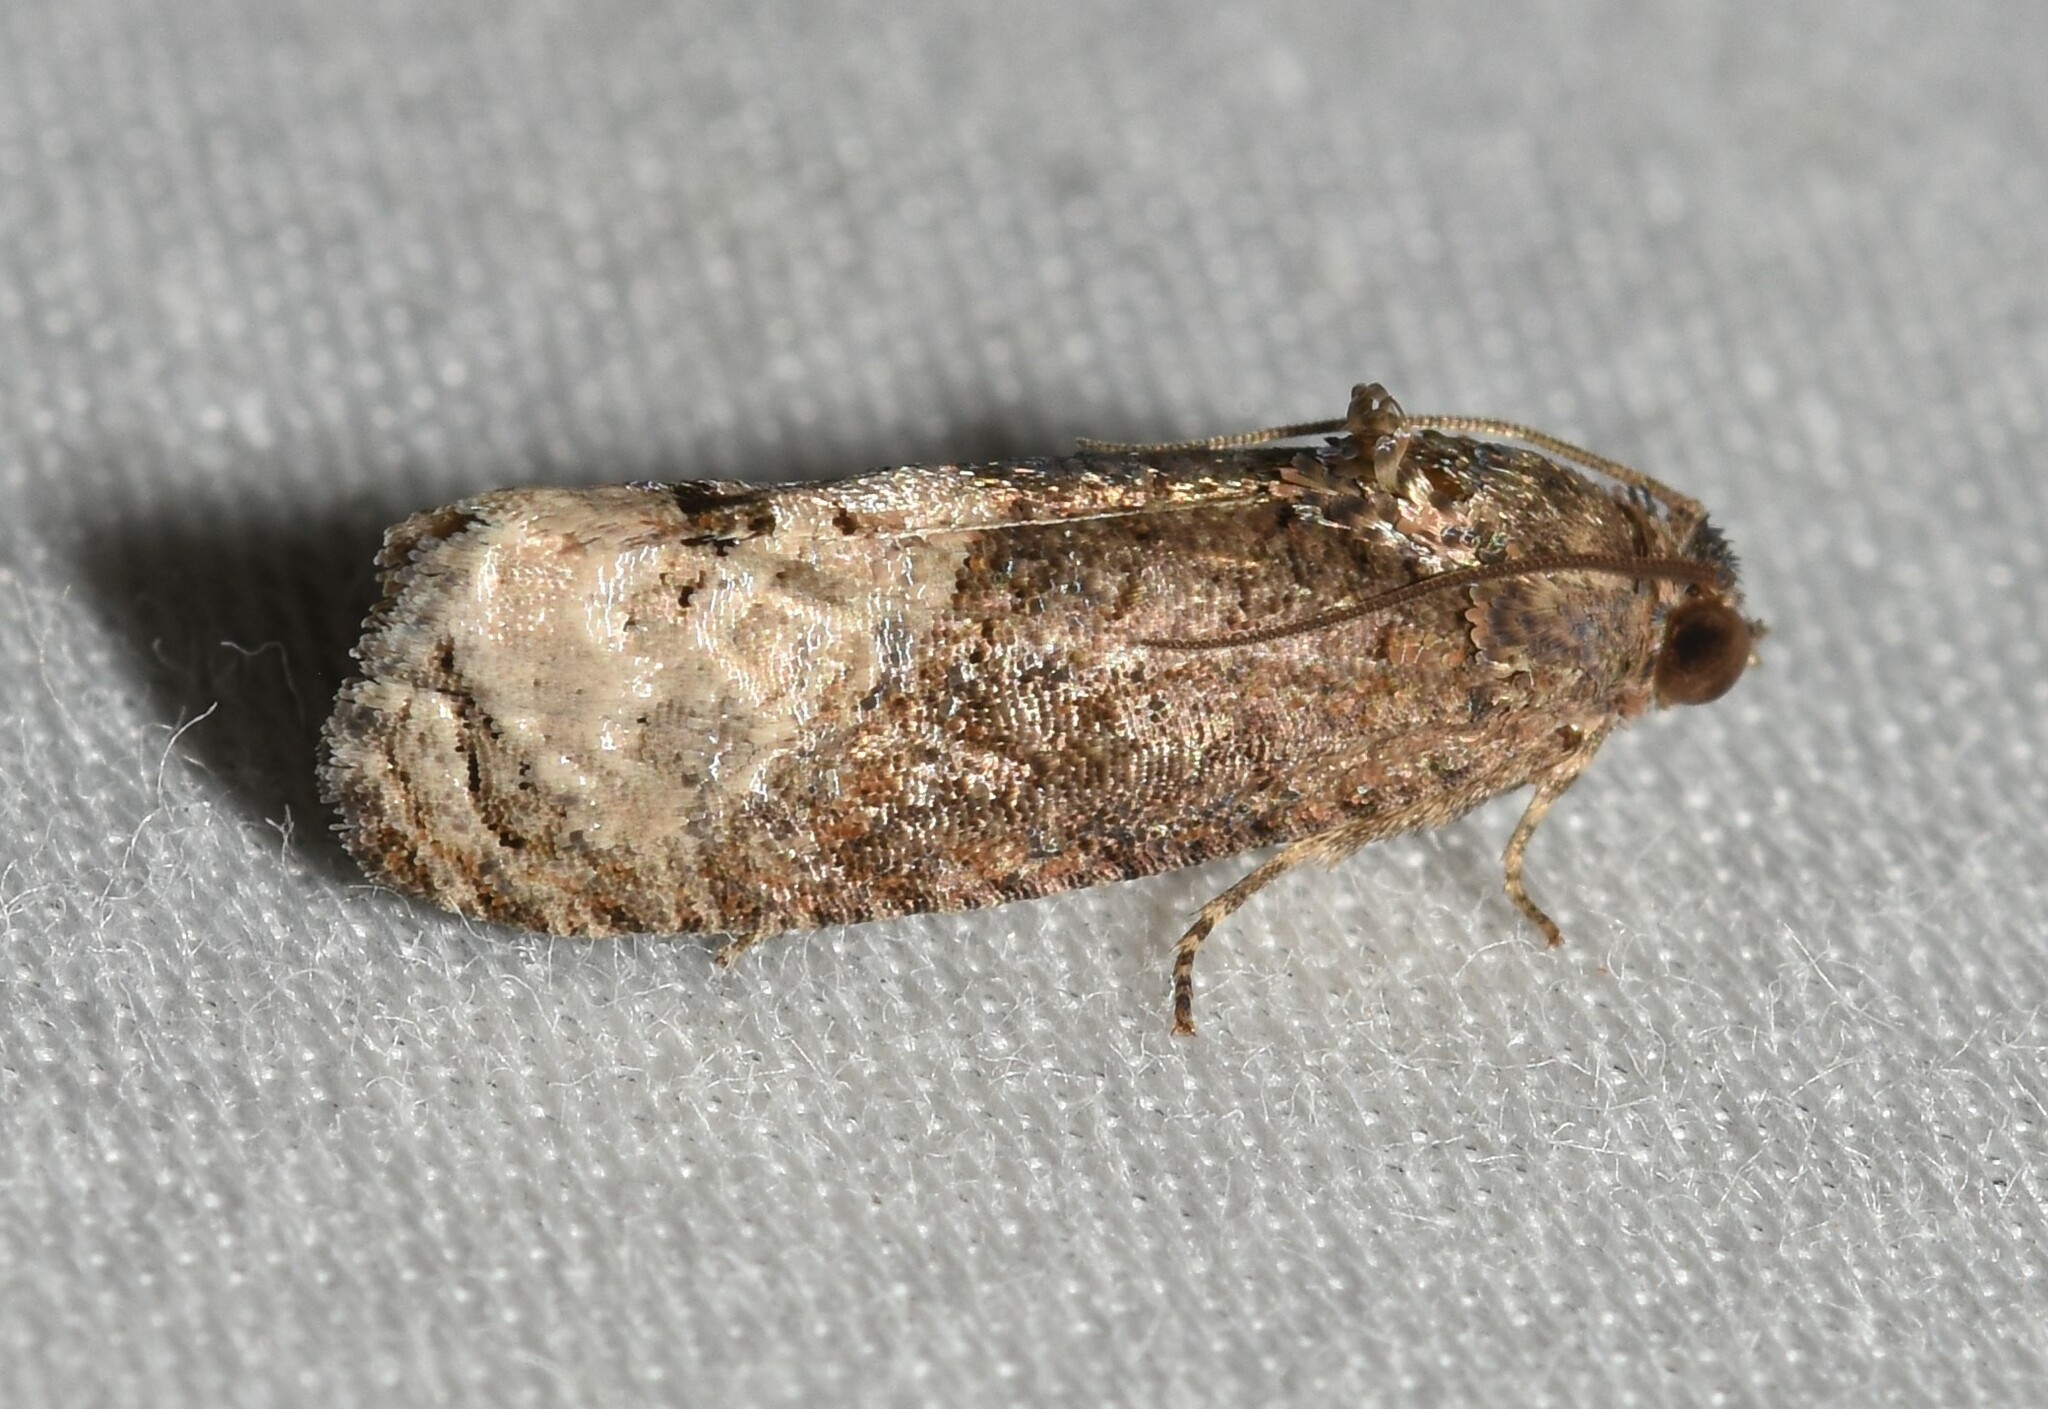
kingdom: Animalia
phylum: Arthropoda
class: Insecta
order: Lepidoptera
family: Tortricidae
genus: Ecdytolopha
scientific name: Ecdytolopha insiticiana
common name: Locust twig borer moth
